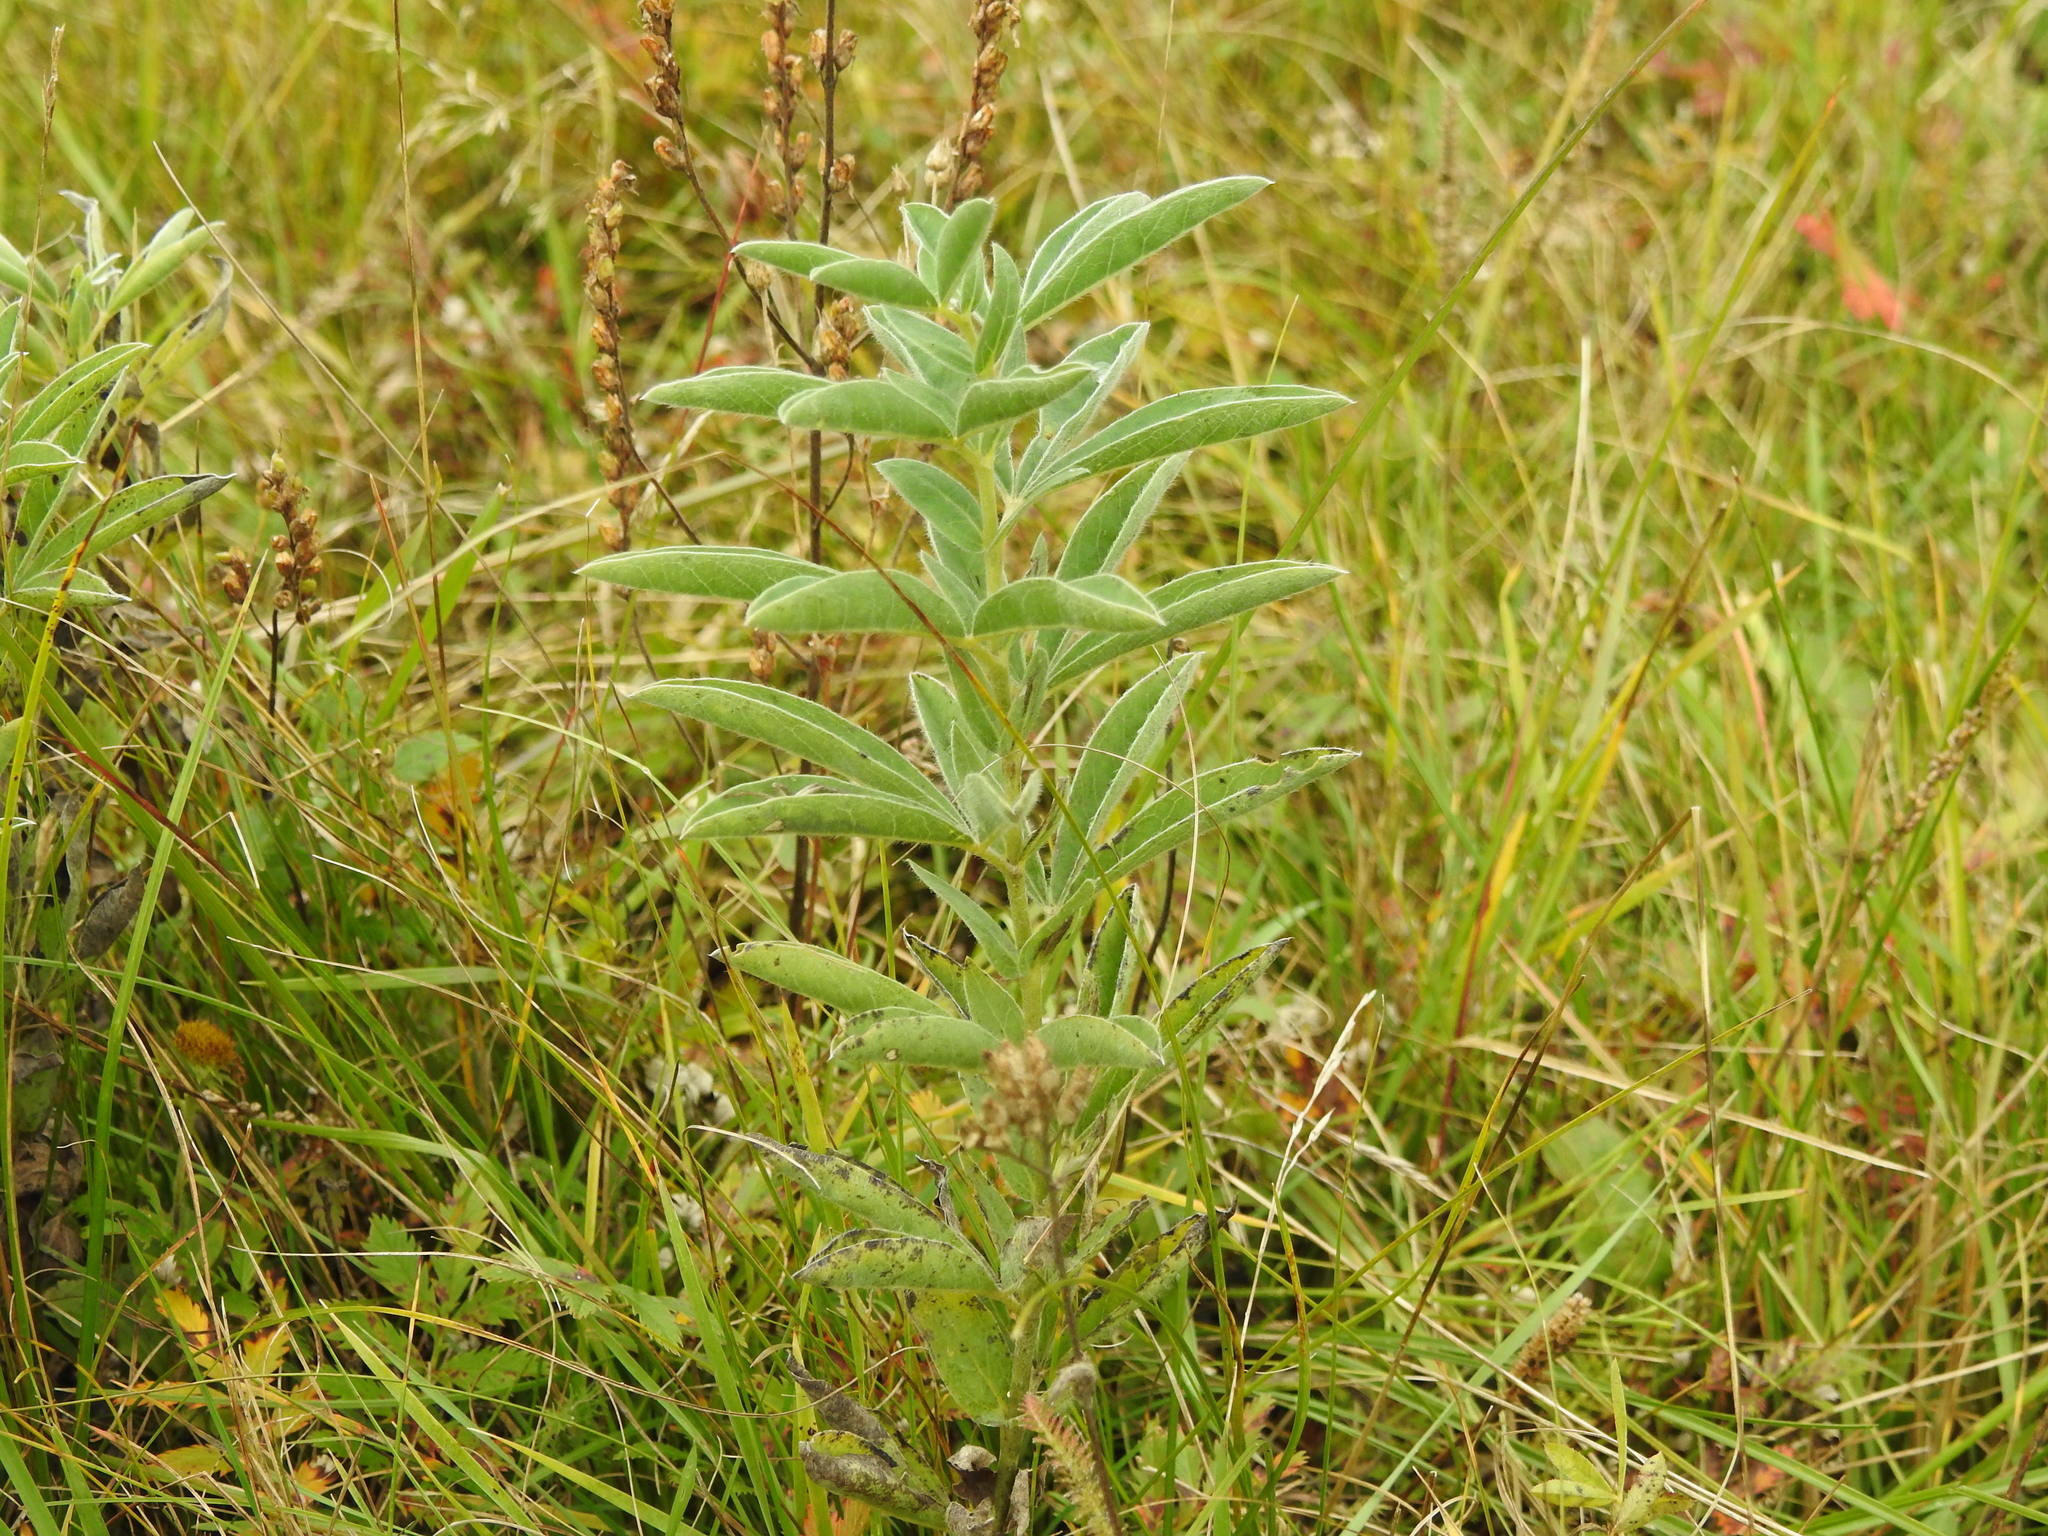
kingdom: Plantae
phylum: Tracheophyta
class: Magnoliopsida
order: Fabales
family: Fabaceae
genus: Thermopsis
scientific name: Thermopsis lanceolata
